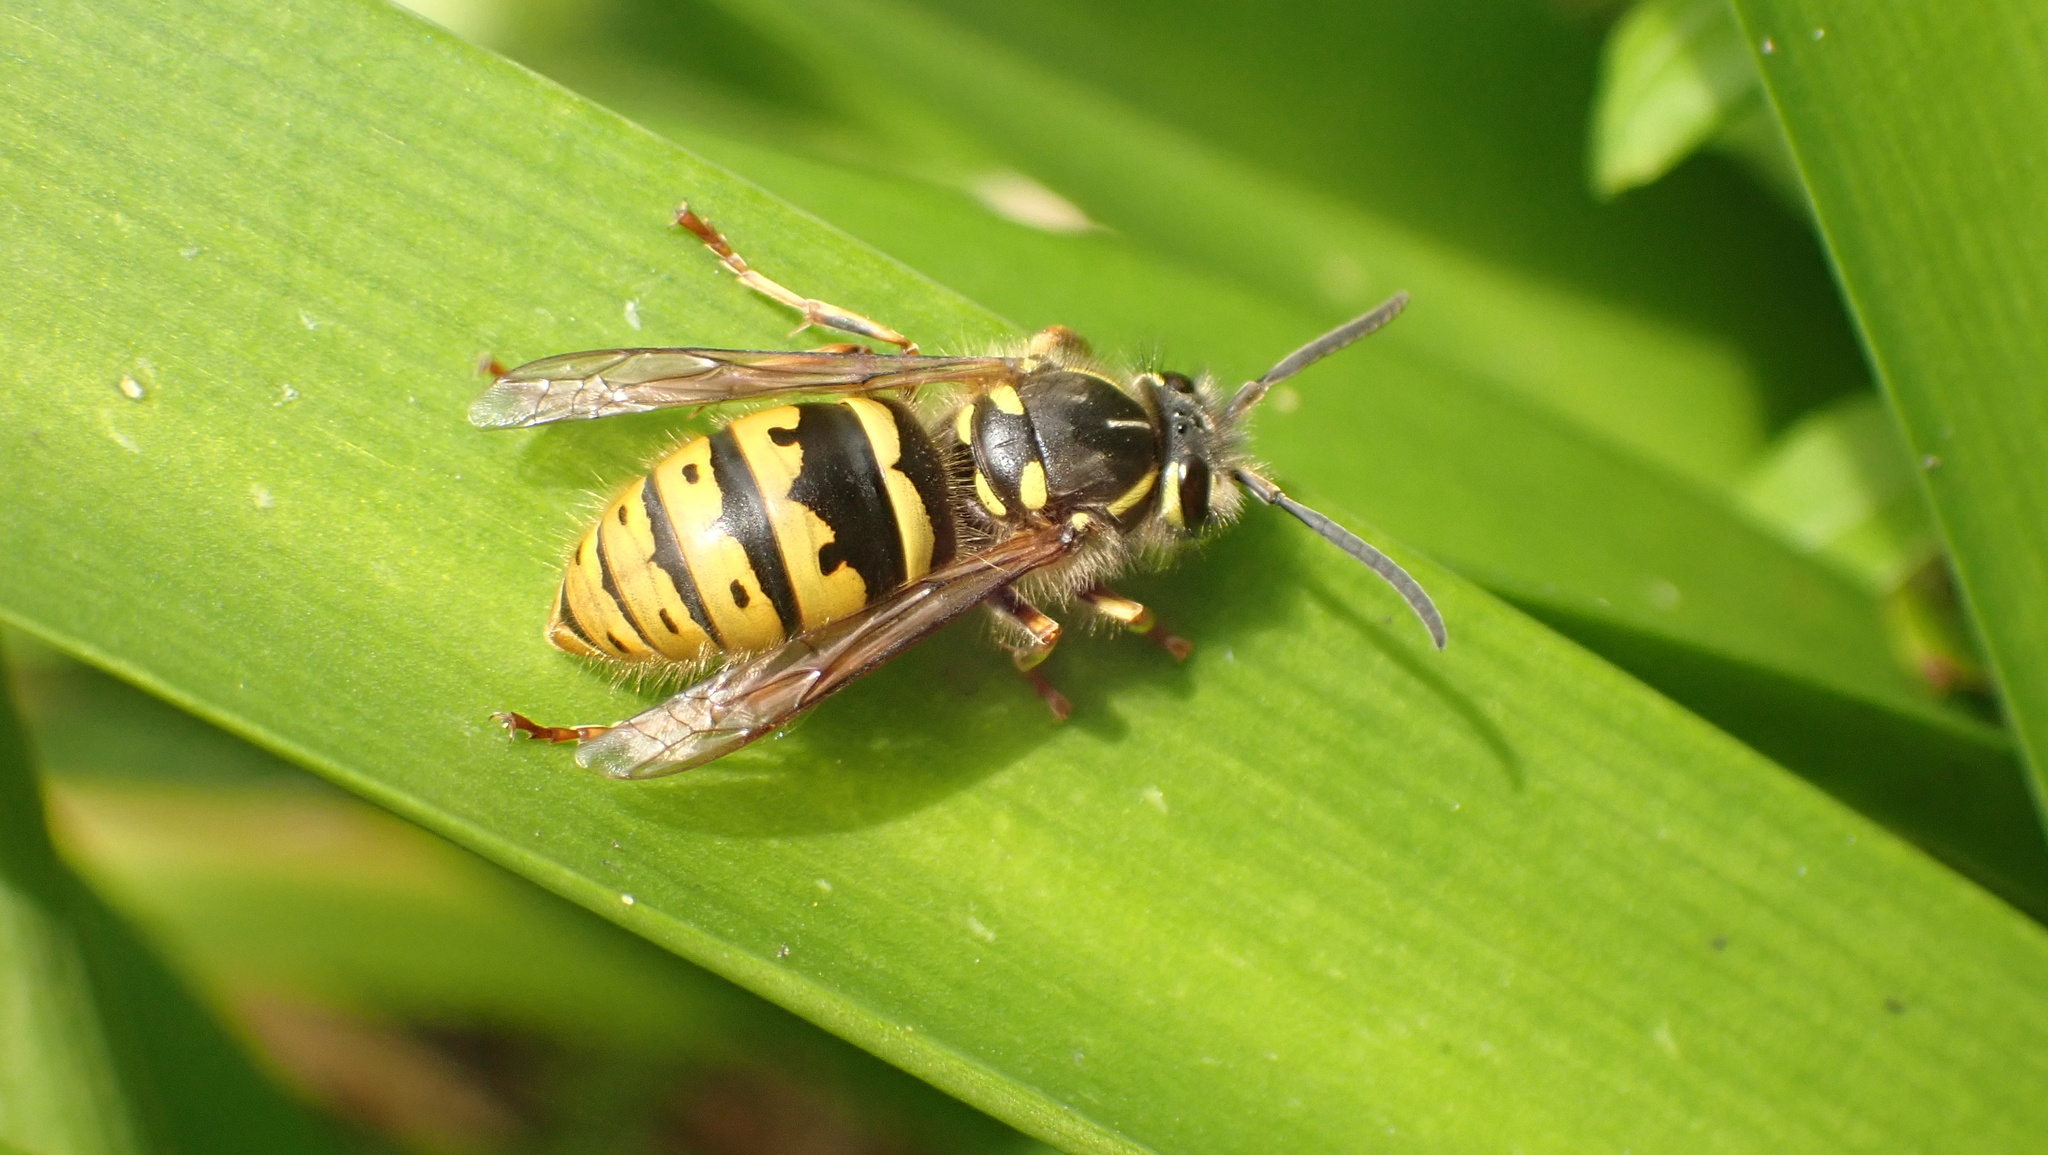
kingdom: Animalia
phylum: Arthropoda
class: Insecta
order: Hymenoptera
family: Vespidae
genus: Vespula
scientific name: Vespula vulgaris
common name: Common wasp
